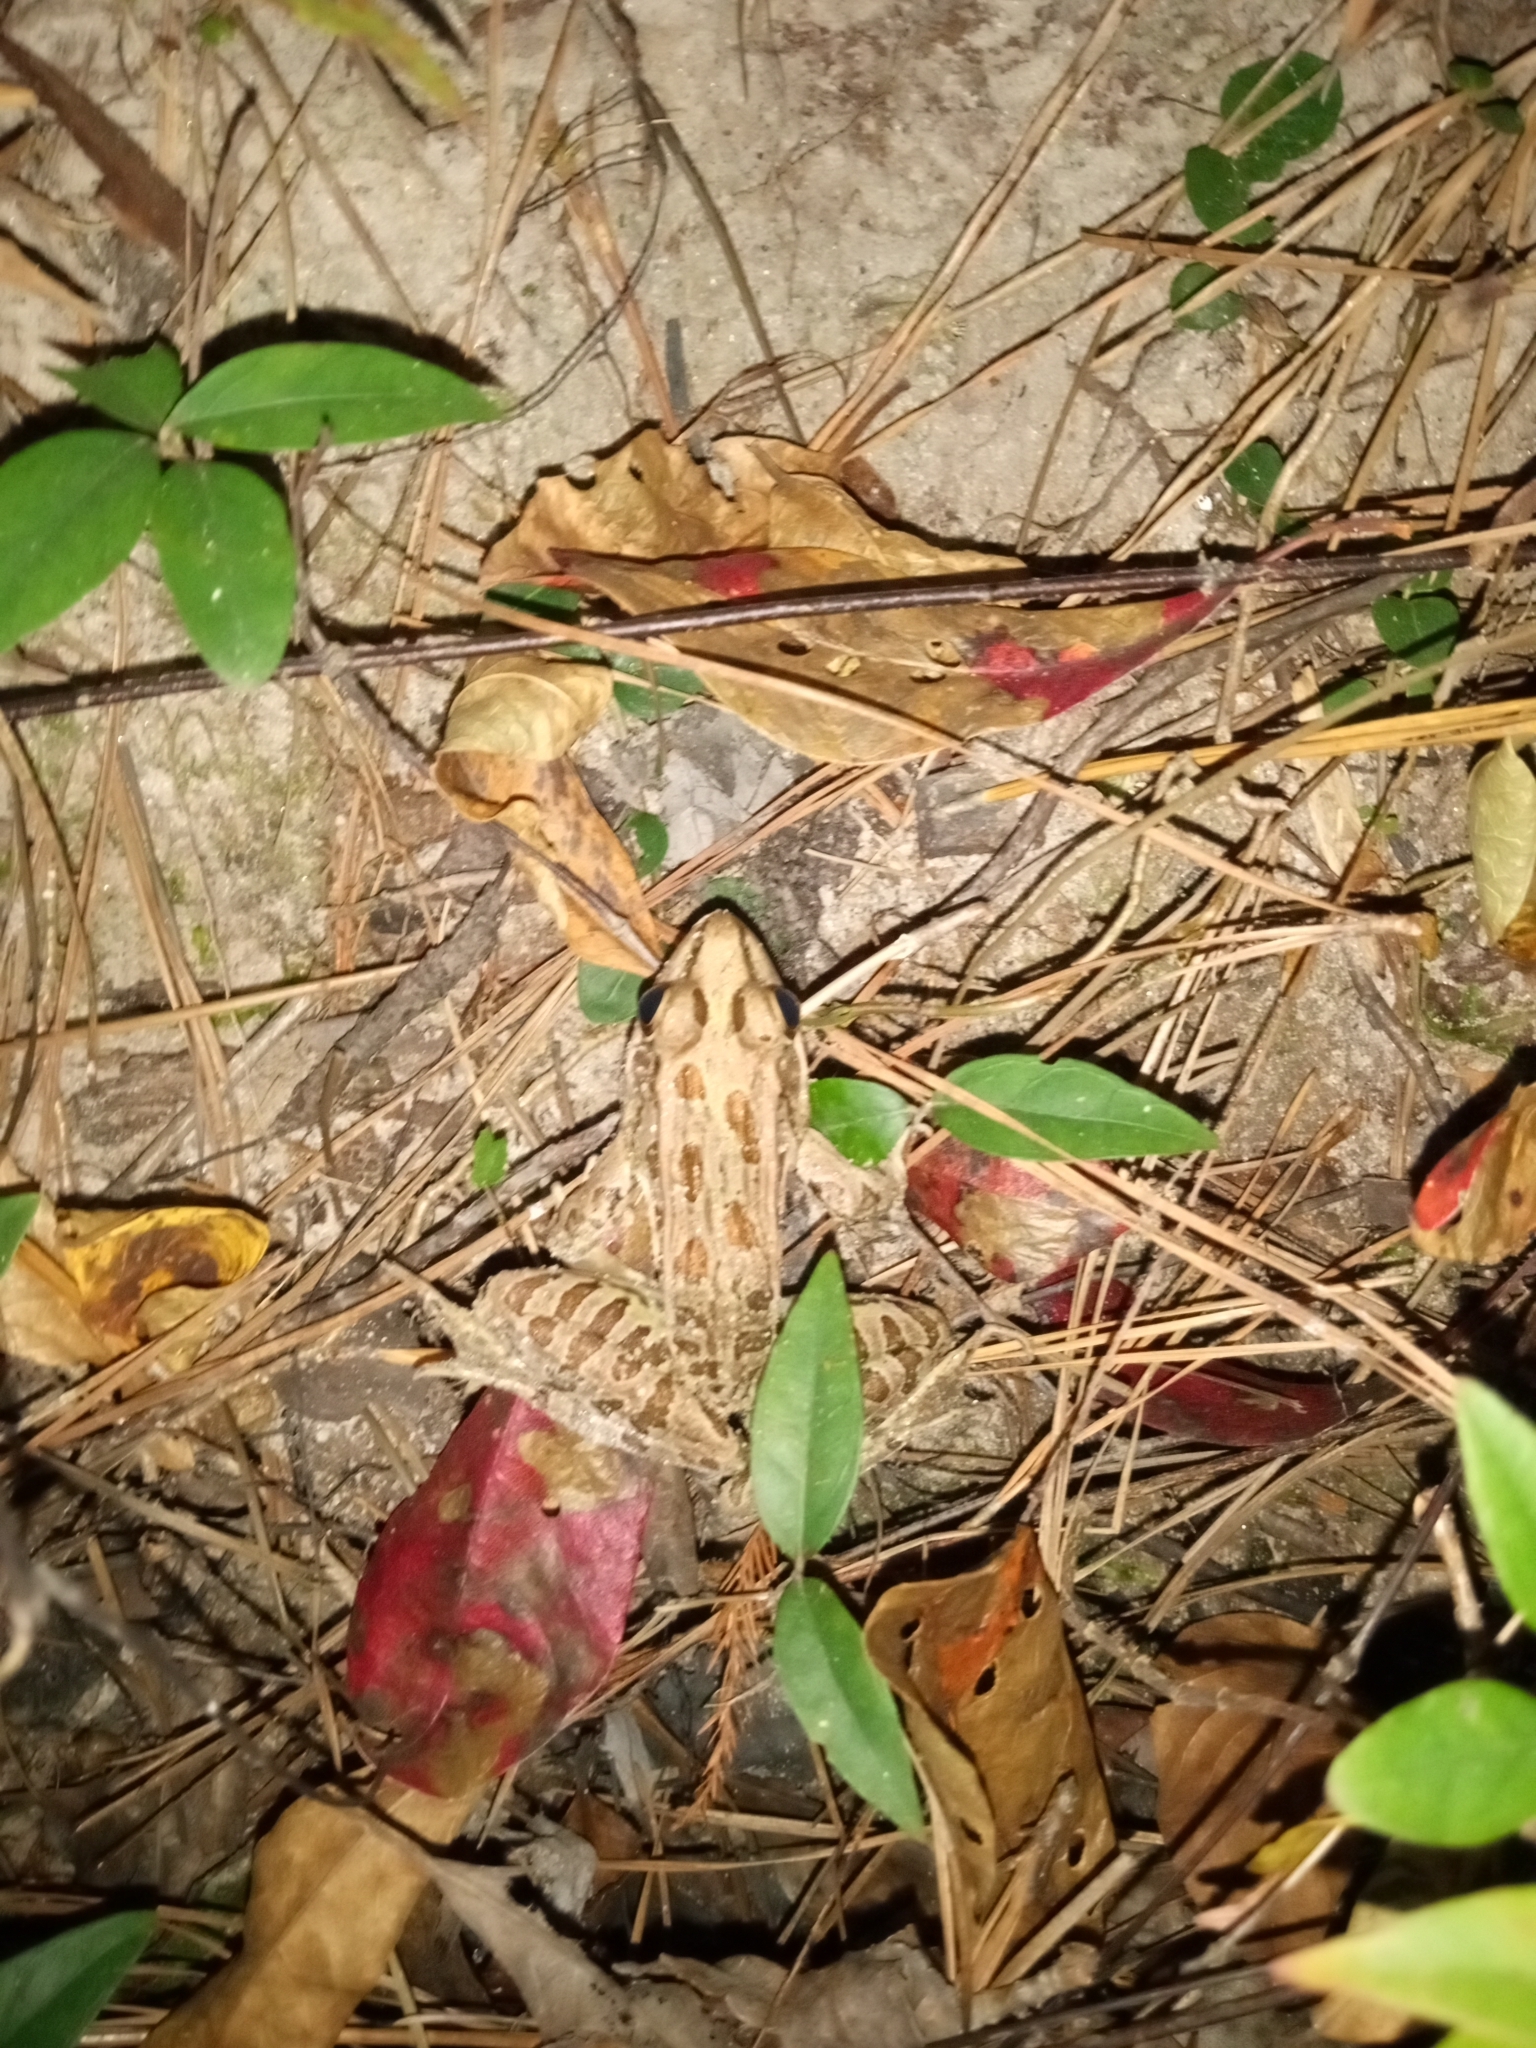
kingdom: Animalia
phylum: Chordata
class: Amphibia
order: Anura
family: Ranidae
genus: Lithobates
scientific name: Lithobates sphenocephalus
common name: Southern leopard frog
